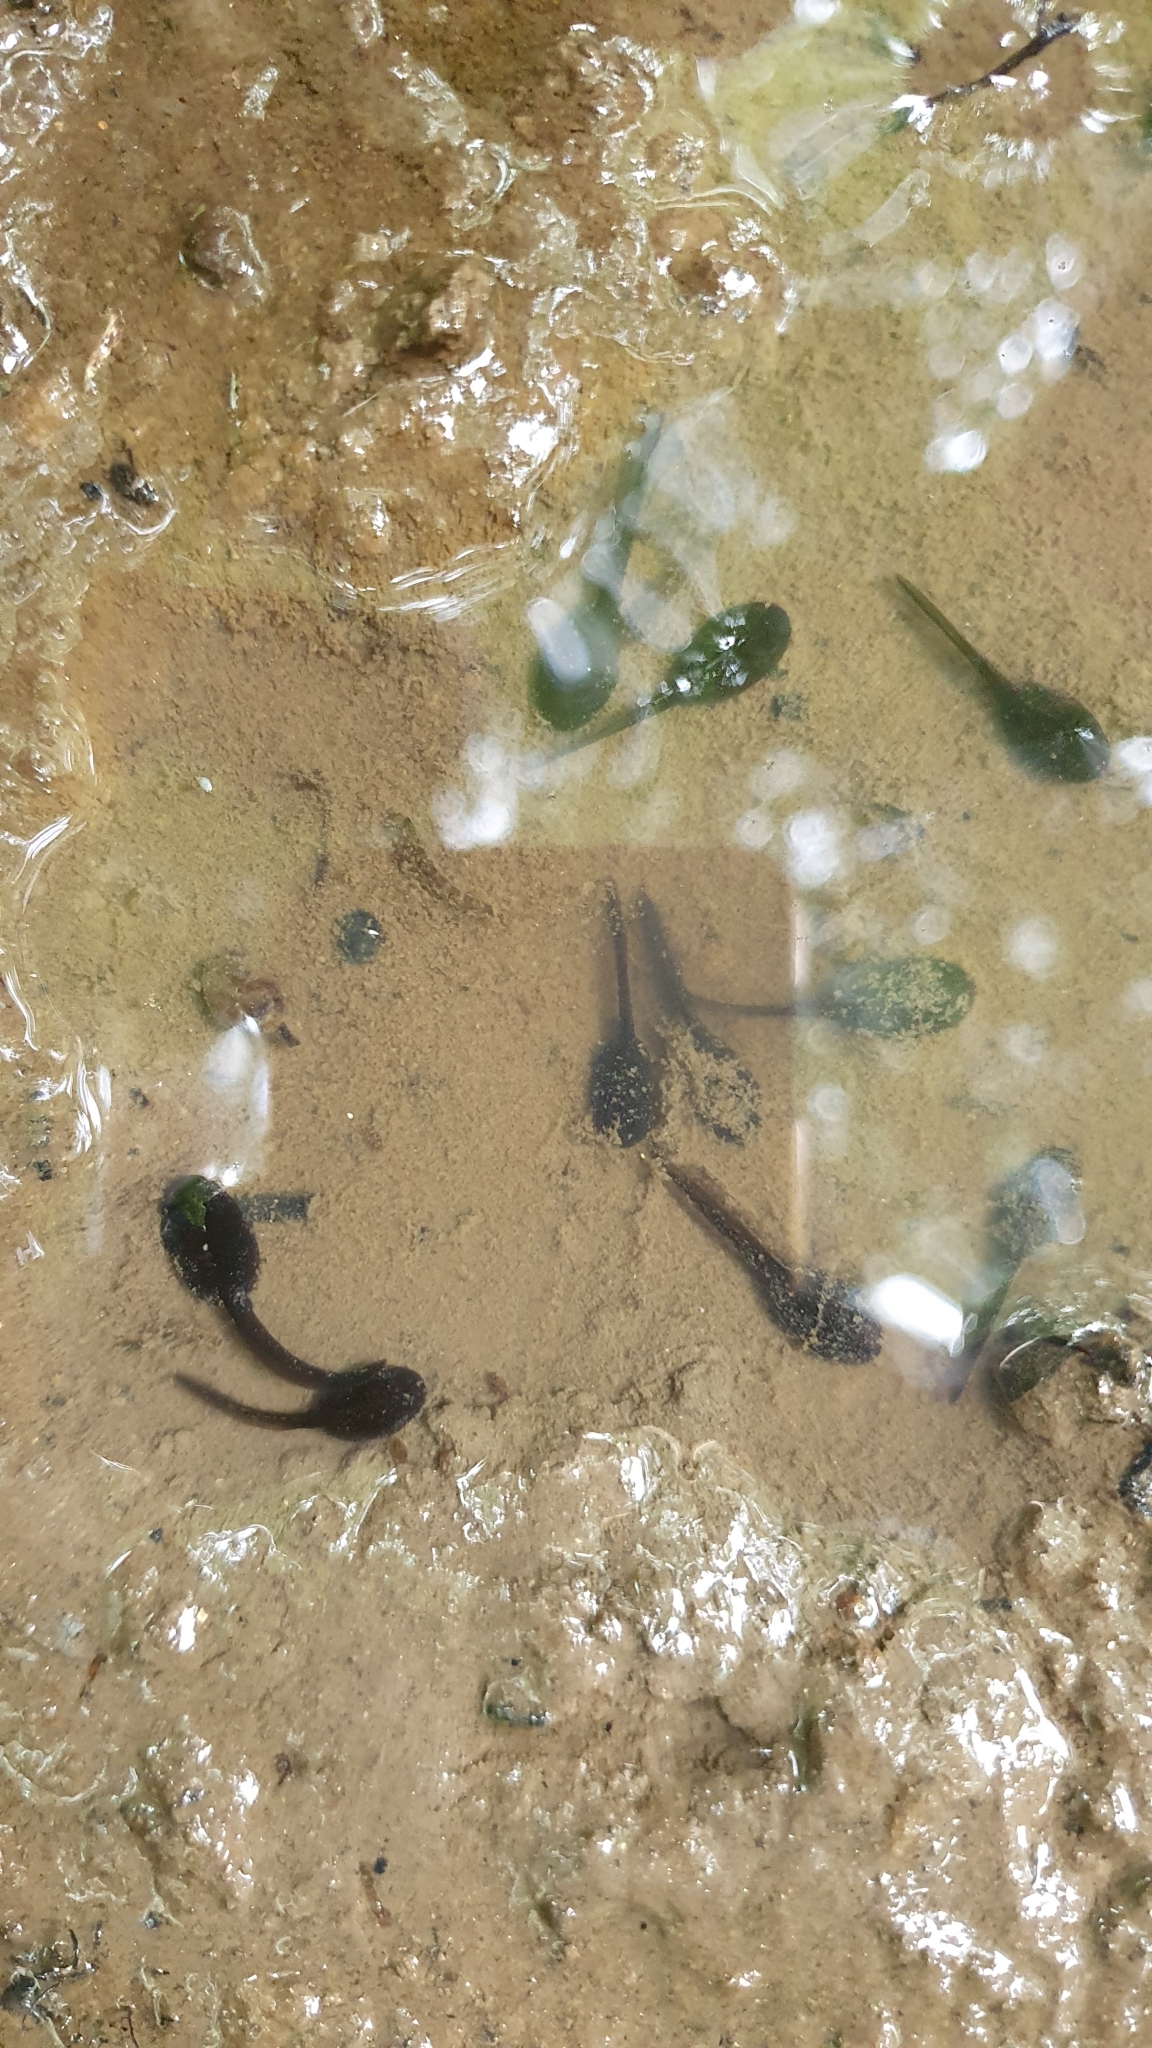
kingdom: Animalia
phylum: Chordata
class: Amphibia
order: Anura
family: Bufonidae
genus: Bufo
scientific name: Bufo spinosus
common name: Western common toad
